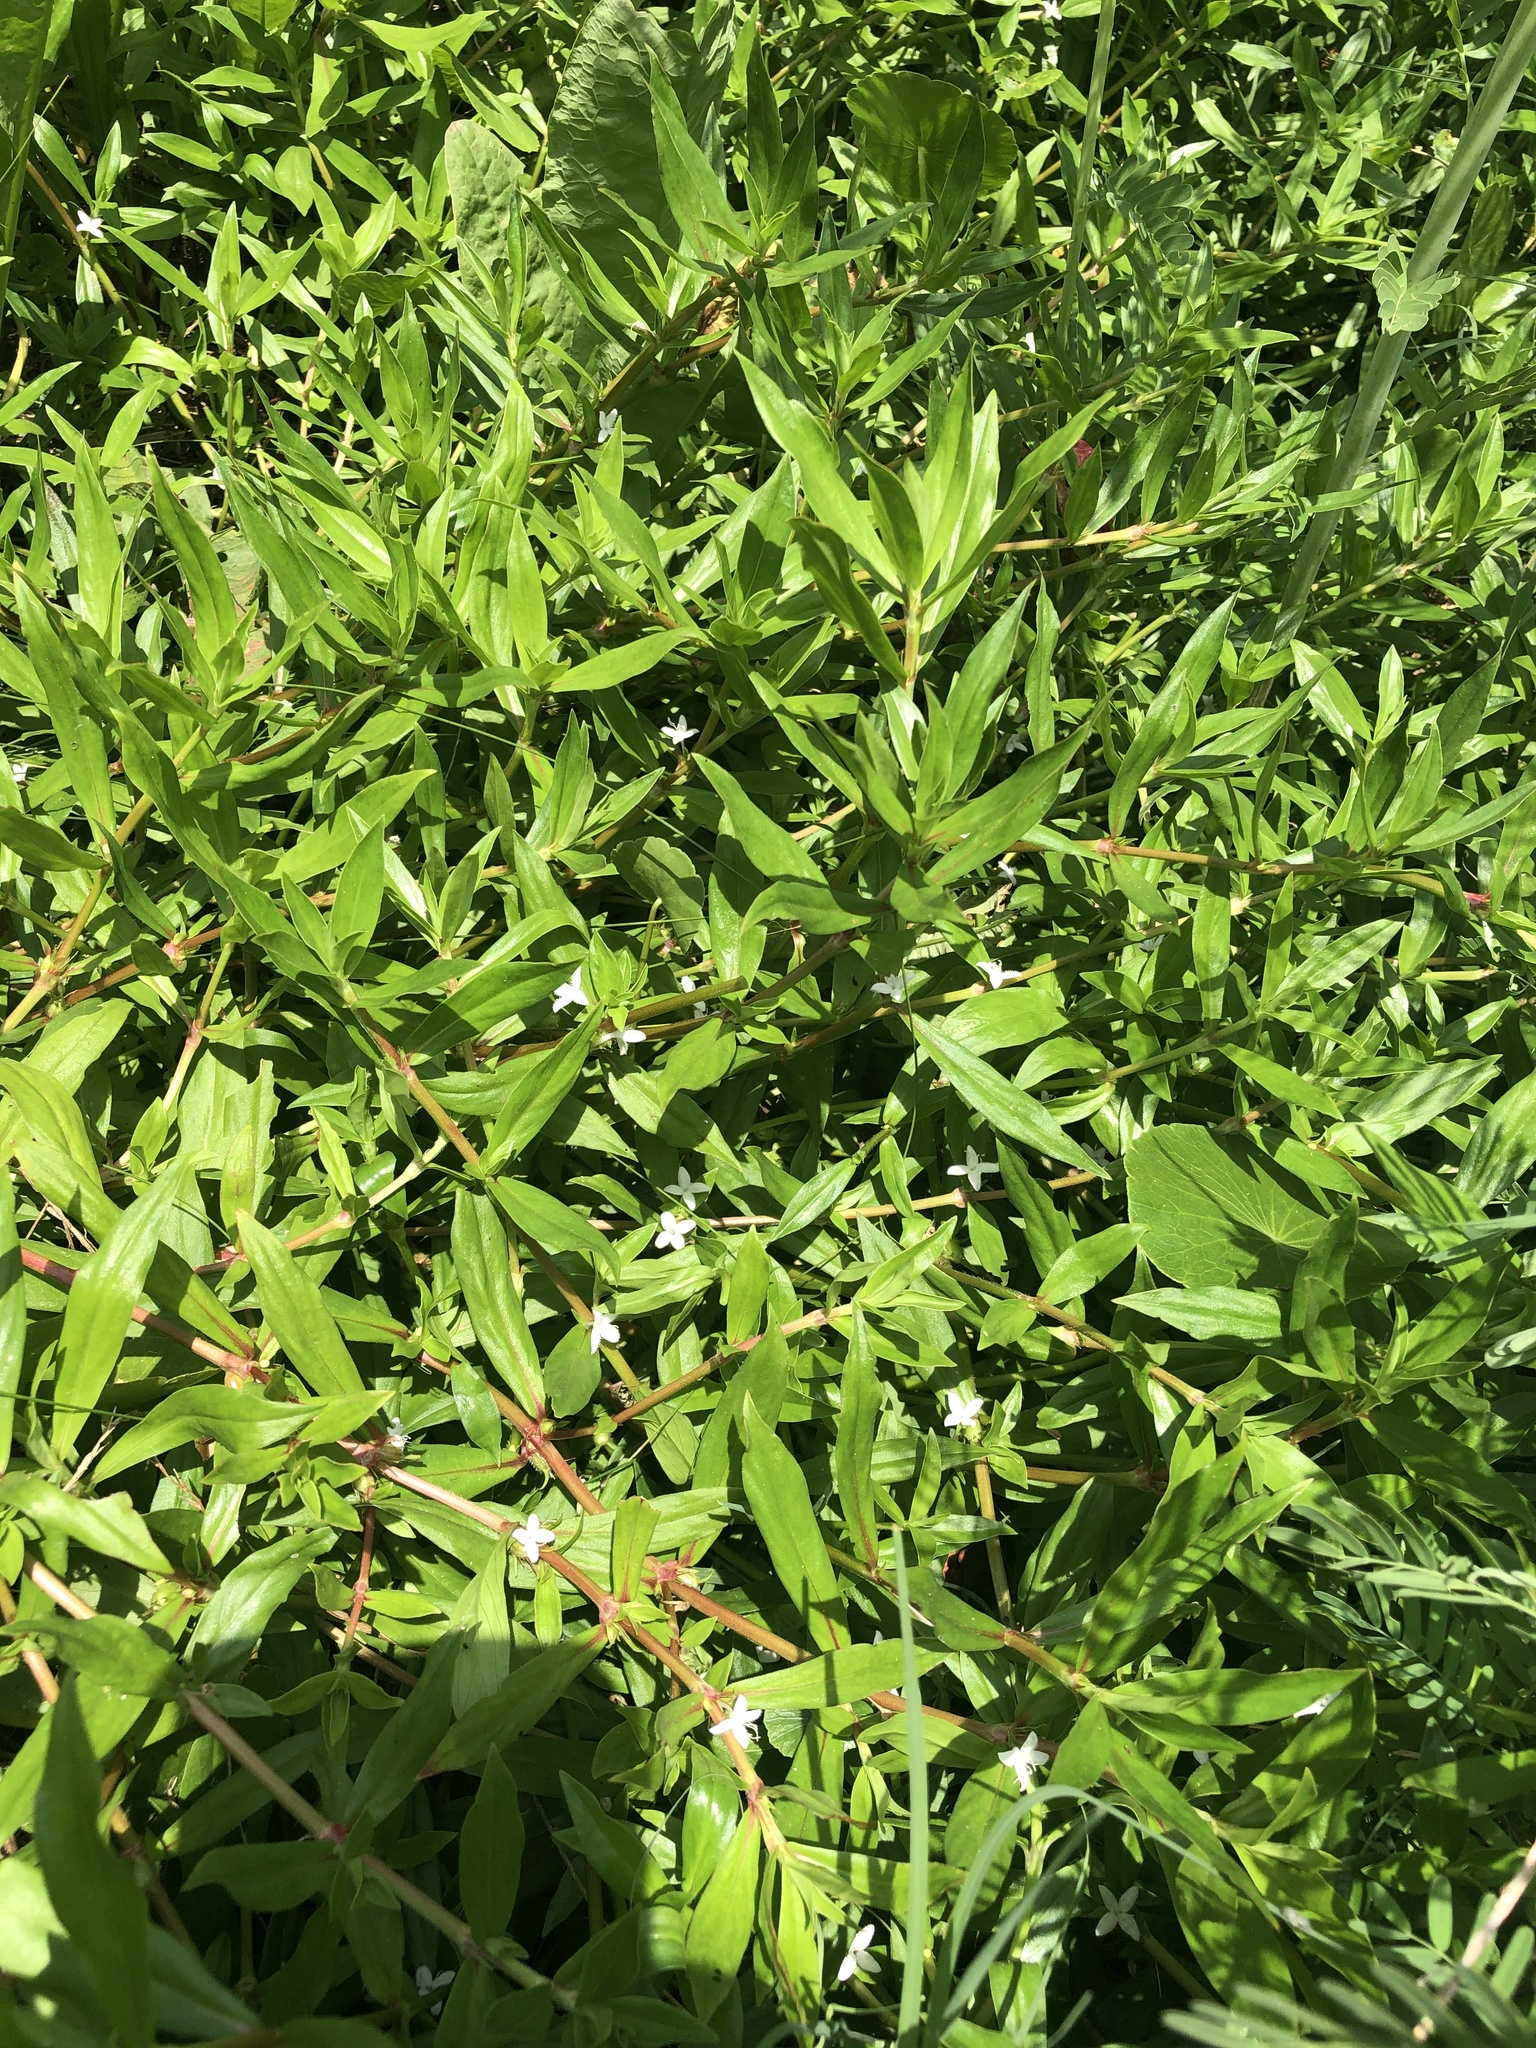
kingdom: Plantae
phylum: Tracheophyta
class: Magnoliopsida
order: Gentianales
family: Rubiaceae
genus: Diodia
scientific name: Diodia virginiana
